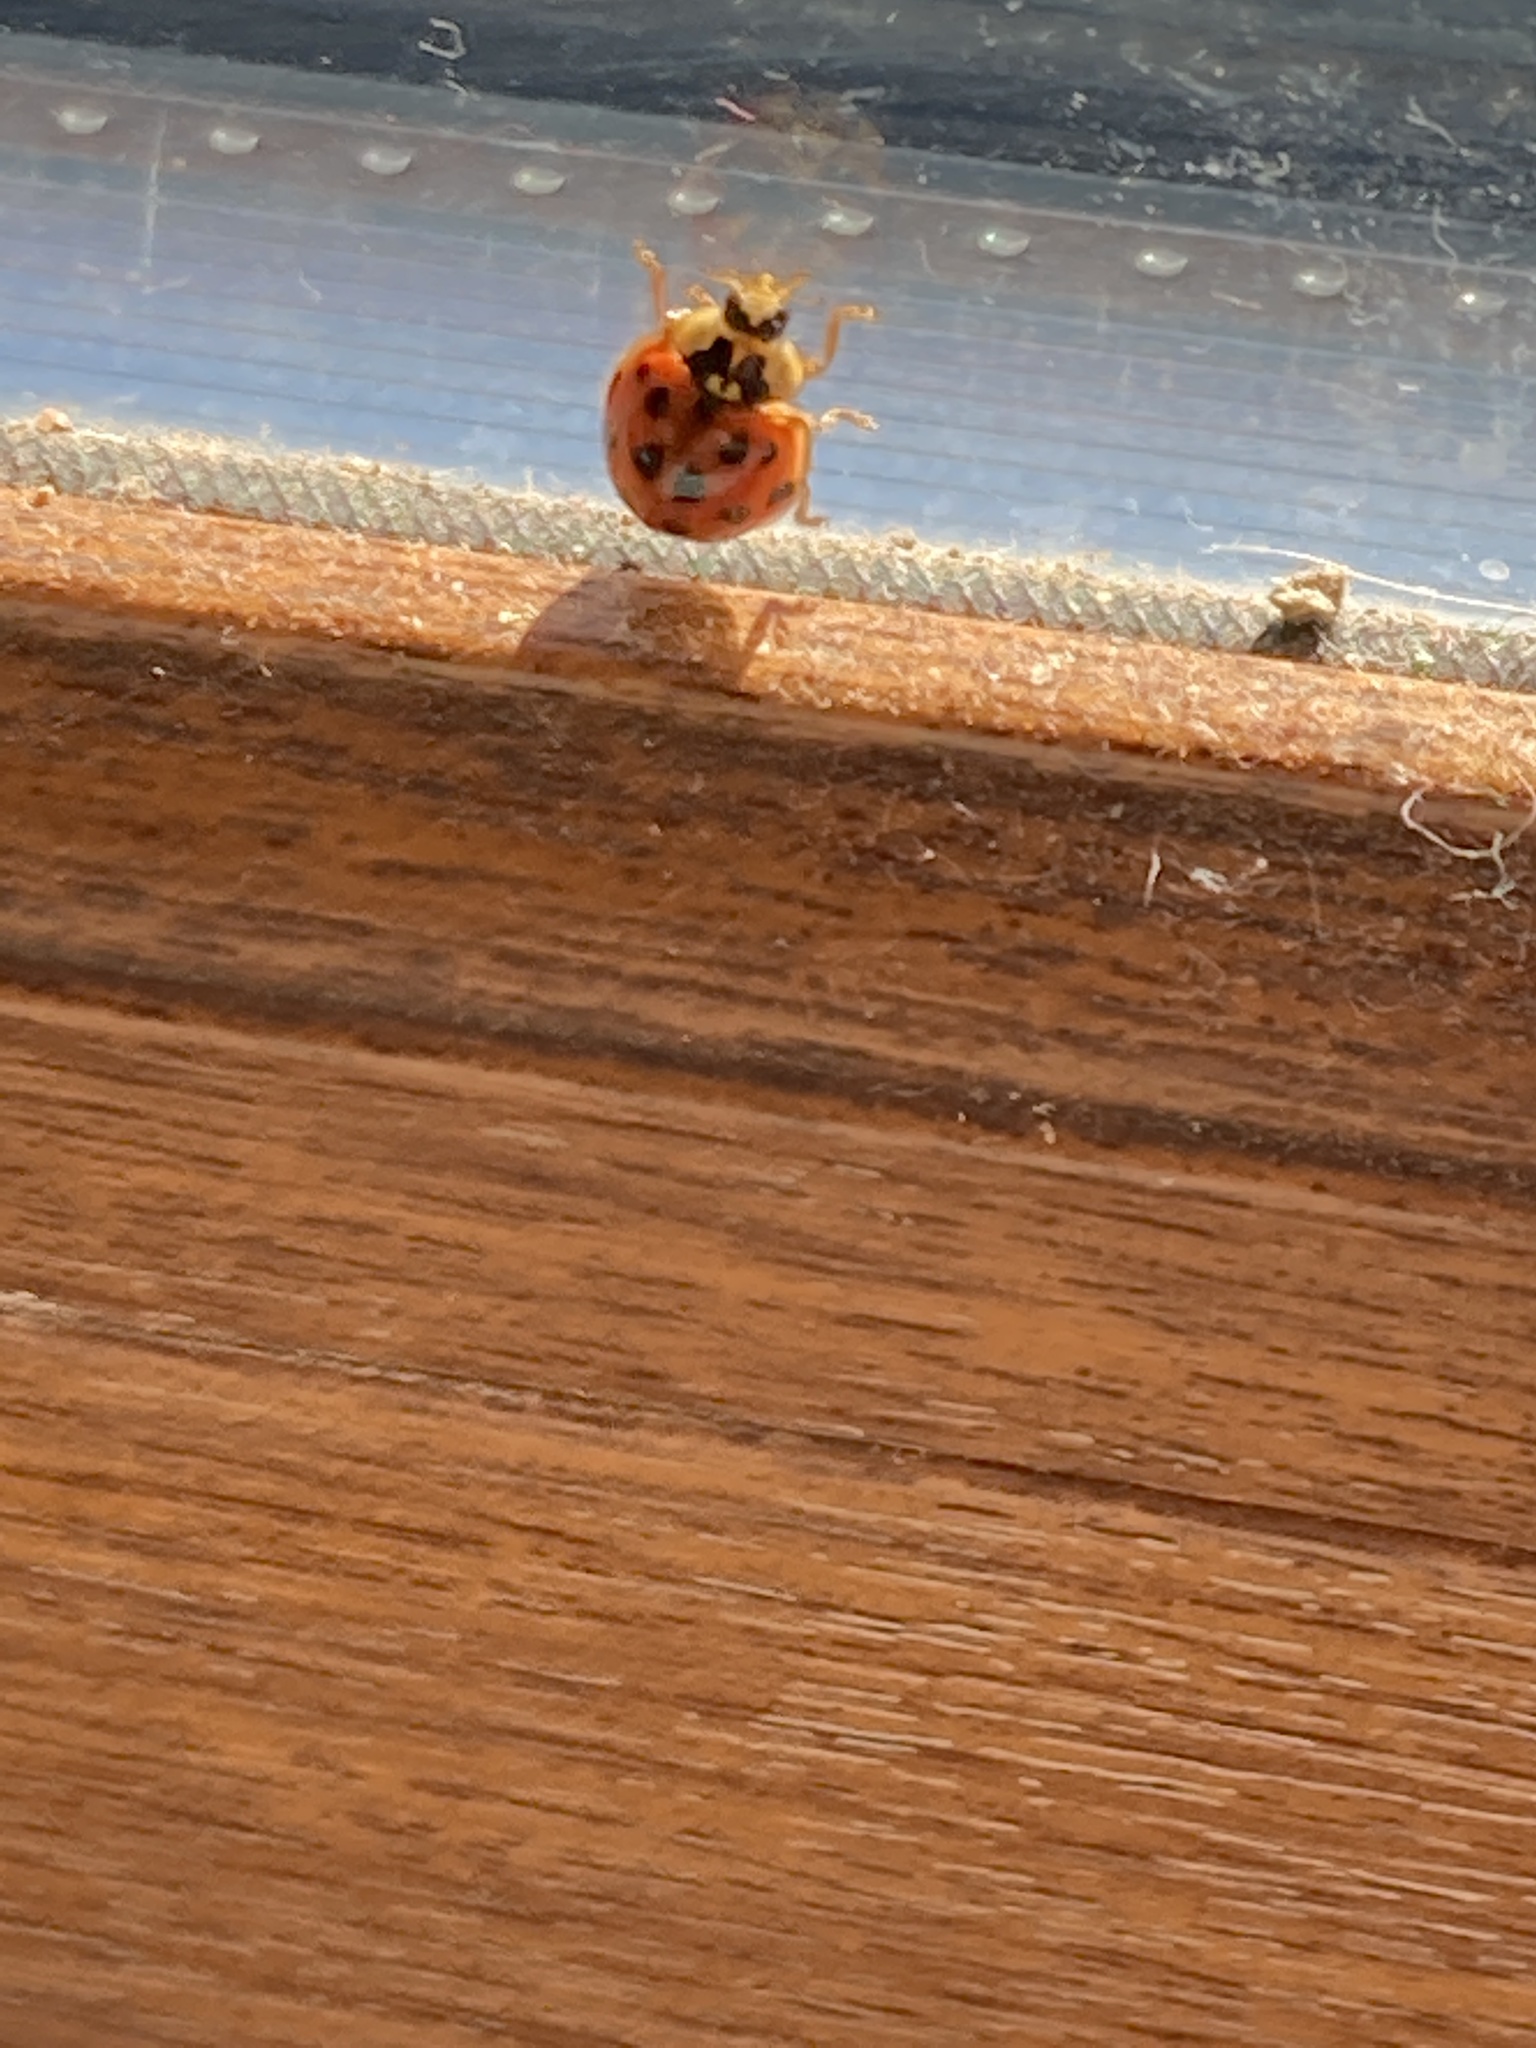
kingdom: Animalia
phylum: Arthropoda
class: Insecta
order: Coleoptera
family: Coccinellidae
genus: Harmonia
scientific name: Harmonia axyridis
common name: Harlequin ladybird
